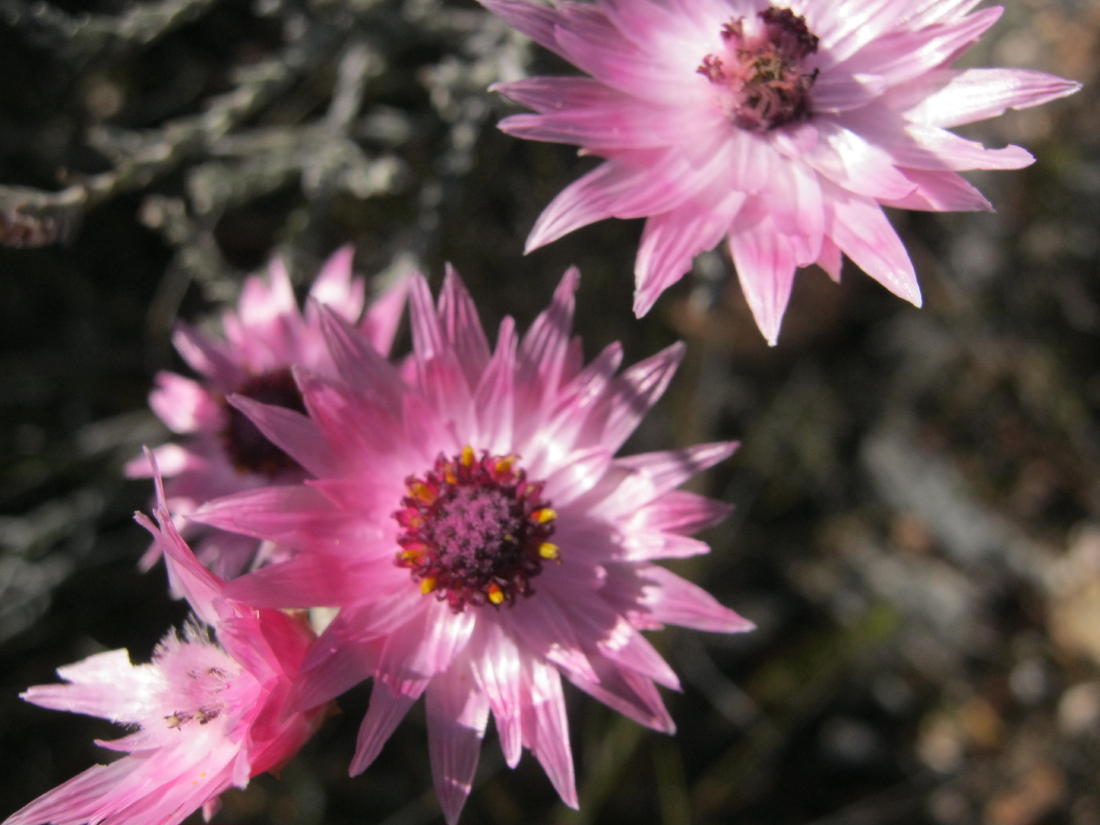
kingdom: Plantae
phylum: Tracheophyta
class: Magnoliopsida
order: Asterales
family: Asteraceae
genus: Syncarpha
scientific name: Syncarpha canescens
